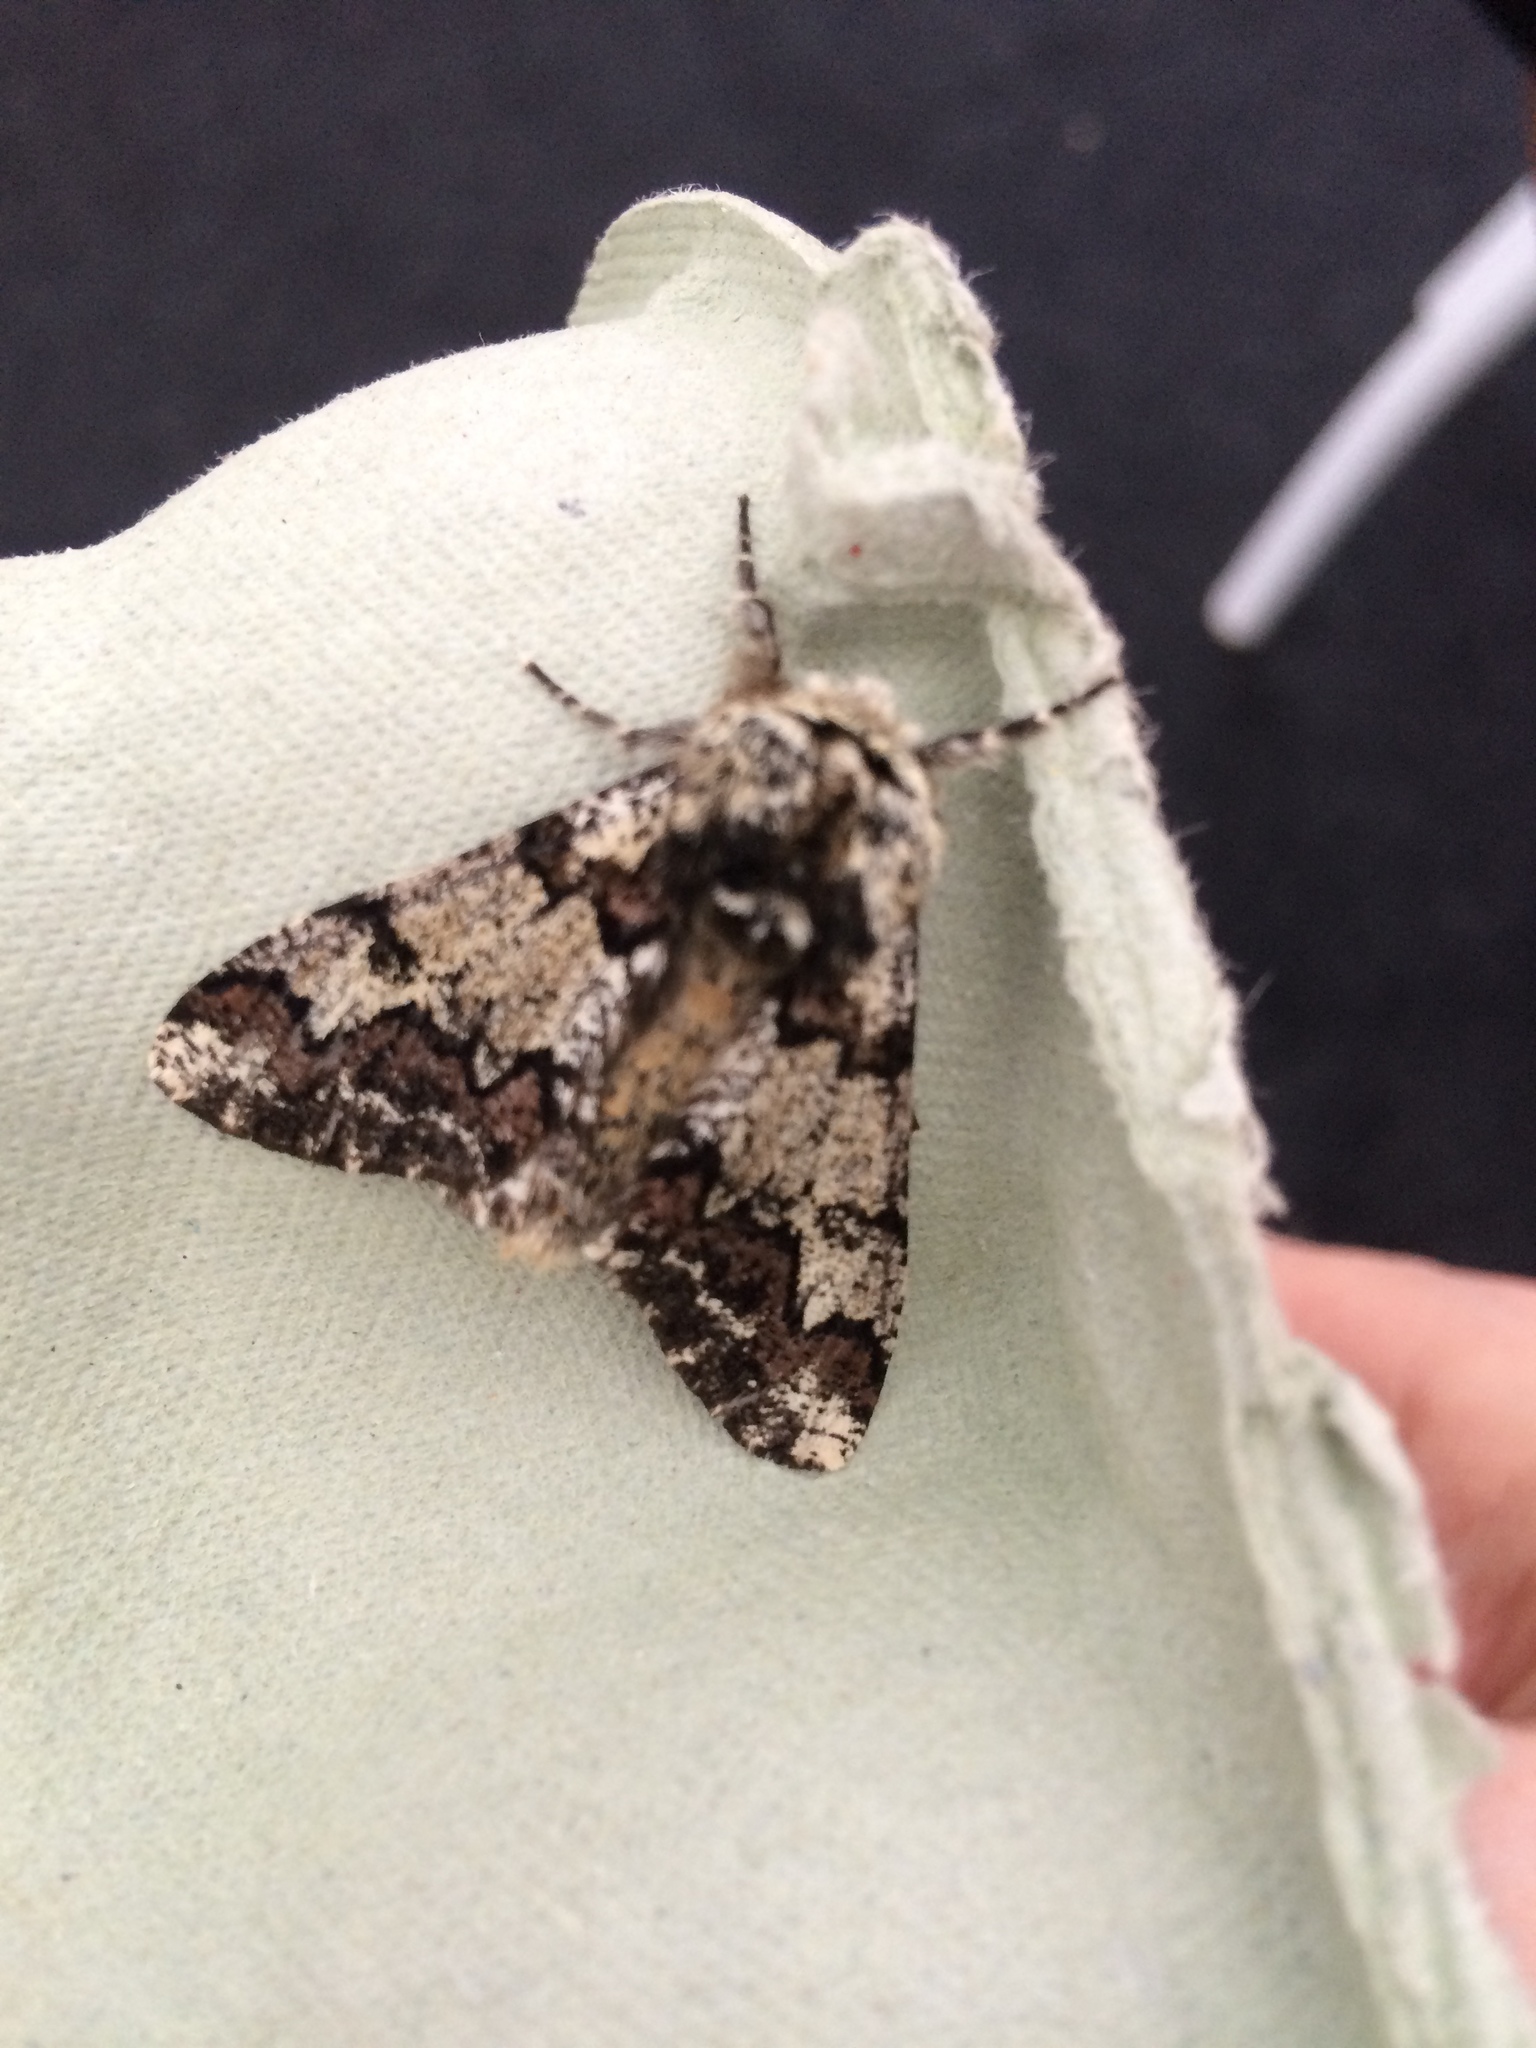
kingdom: Animalia
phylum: Arthropoda
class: Insecta
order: Lepidoptera
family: Geometridae
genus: Biston
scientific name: Biston strataria
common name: Oak beauty
